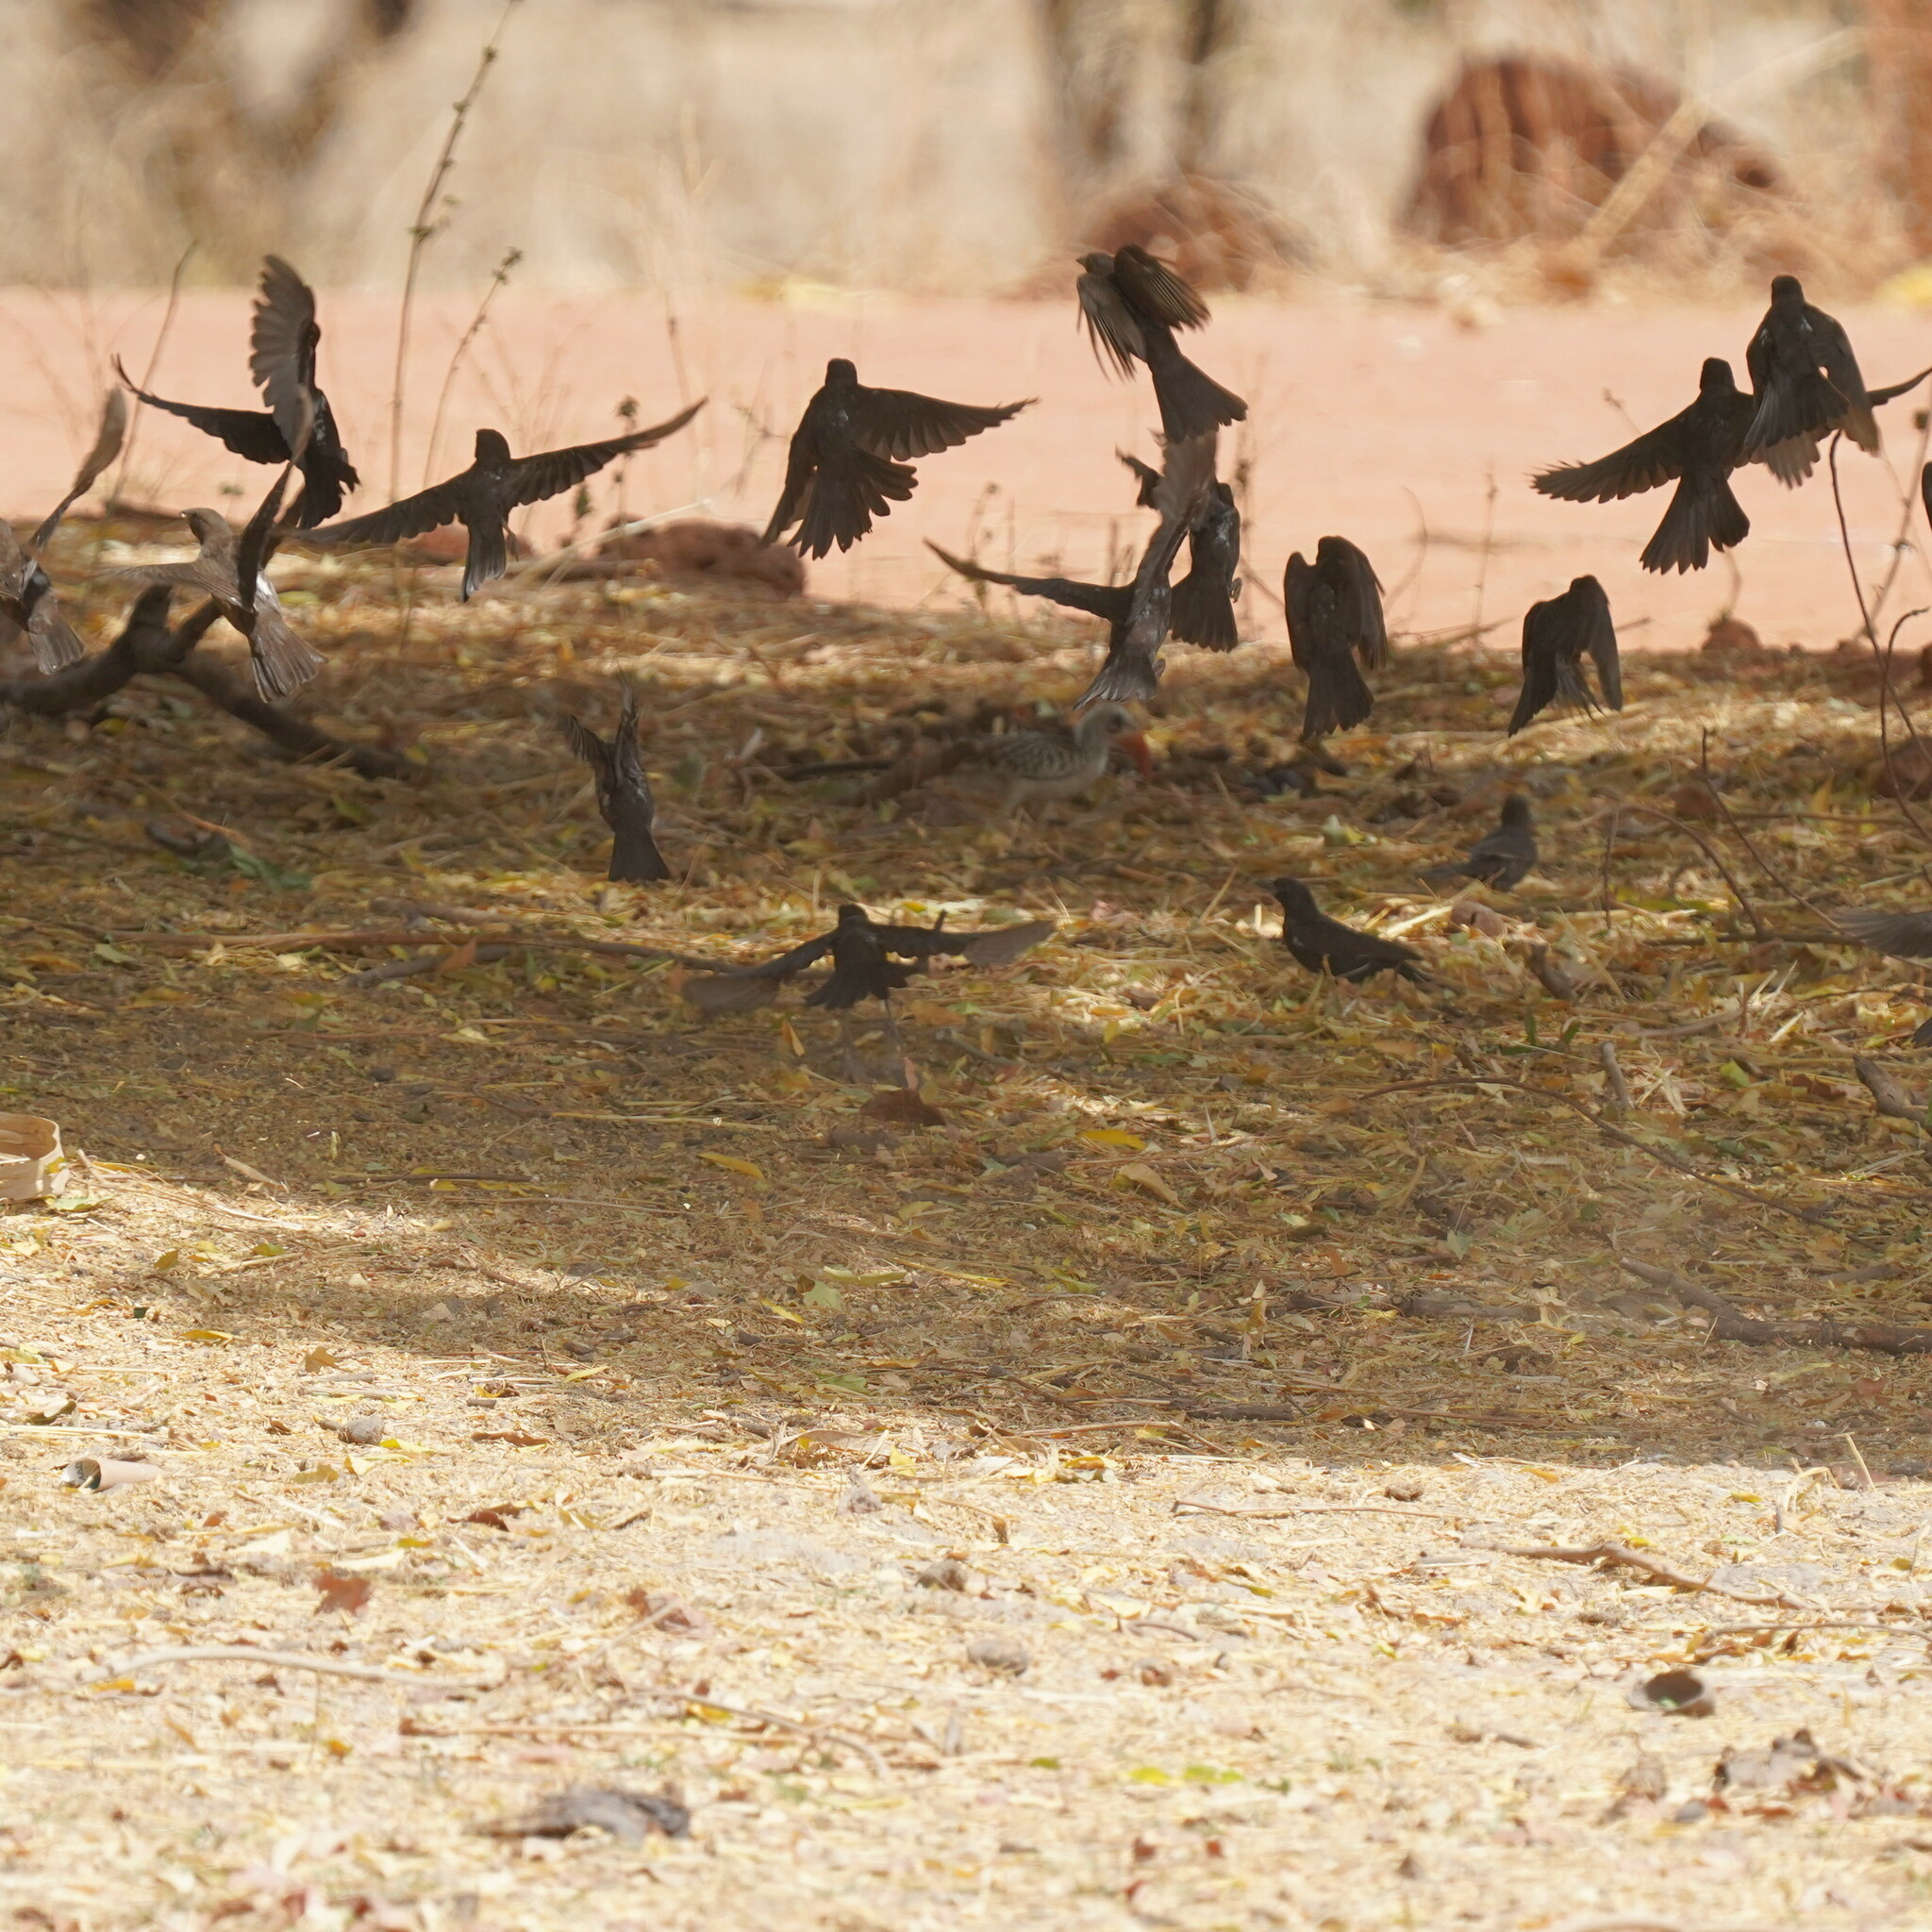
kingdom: Animalia
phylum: Chordata
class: Aves
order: Passeriformes
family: Ploceidae
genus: Bubalornis
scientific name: Bubalornis albirostris
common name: White-billed buffalo weaver
